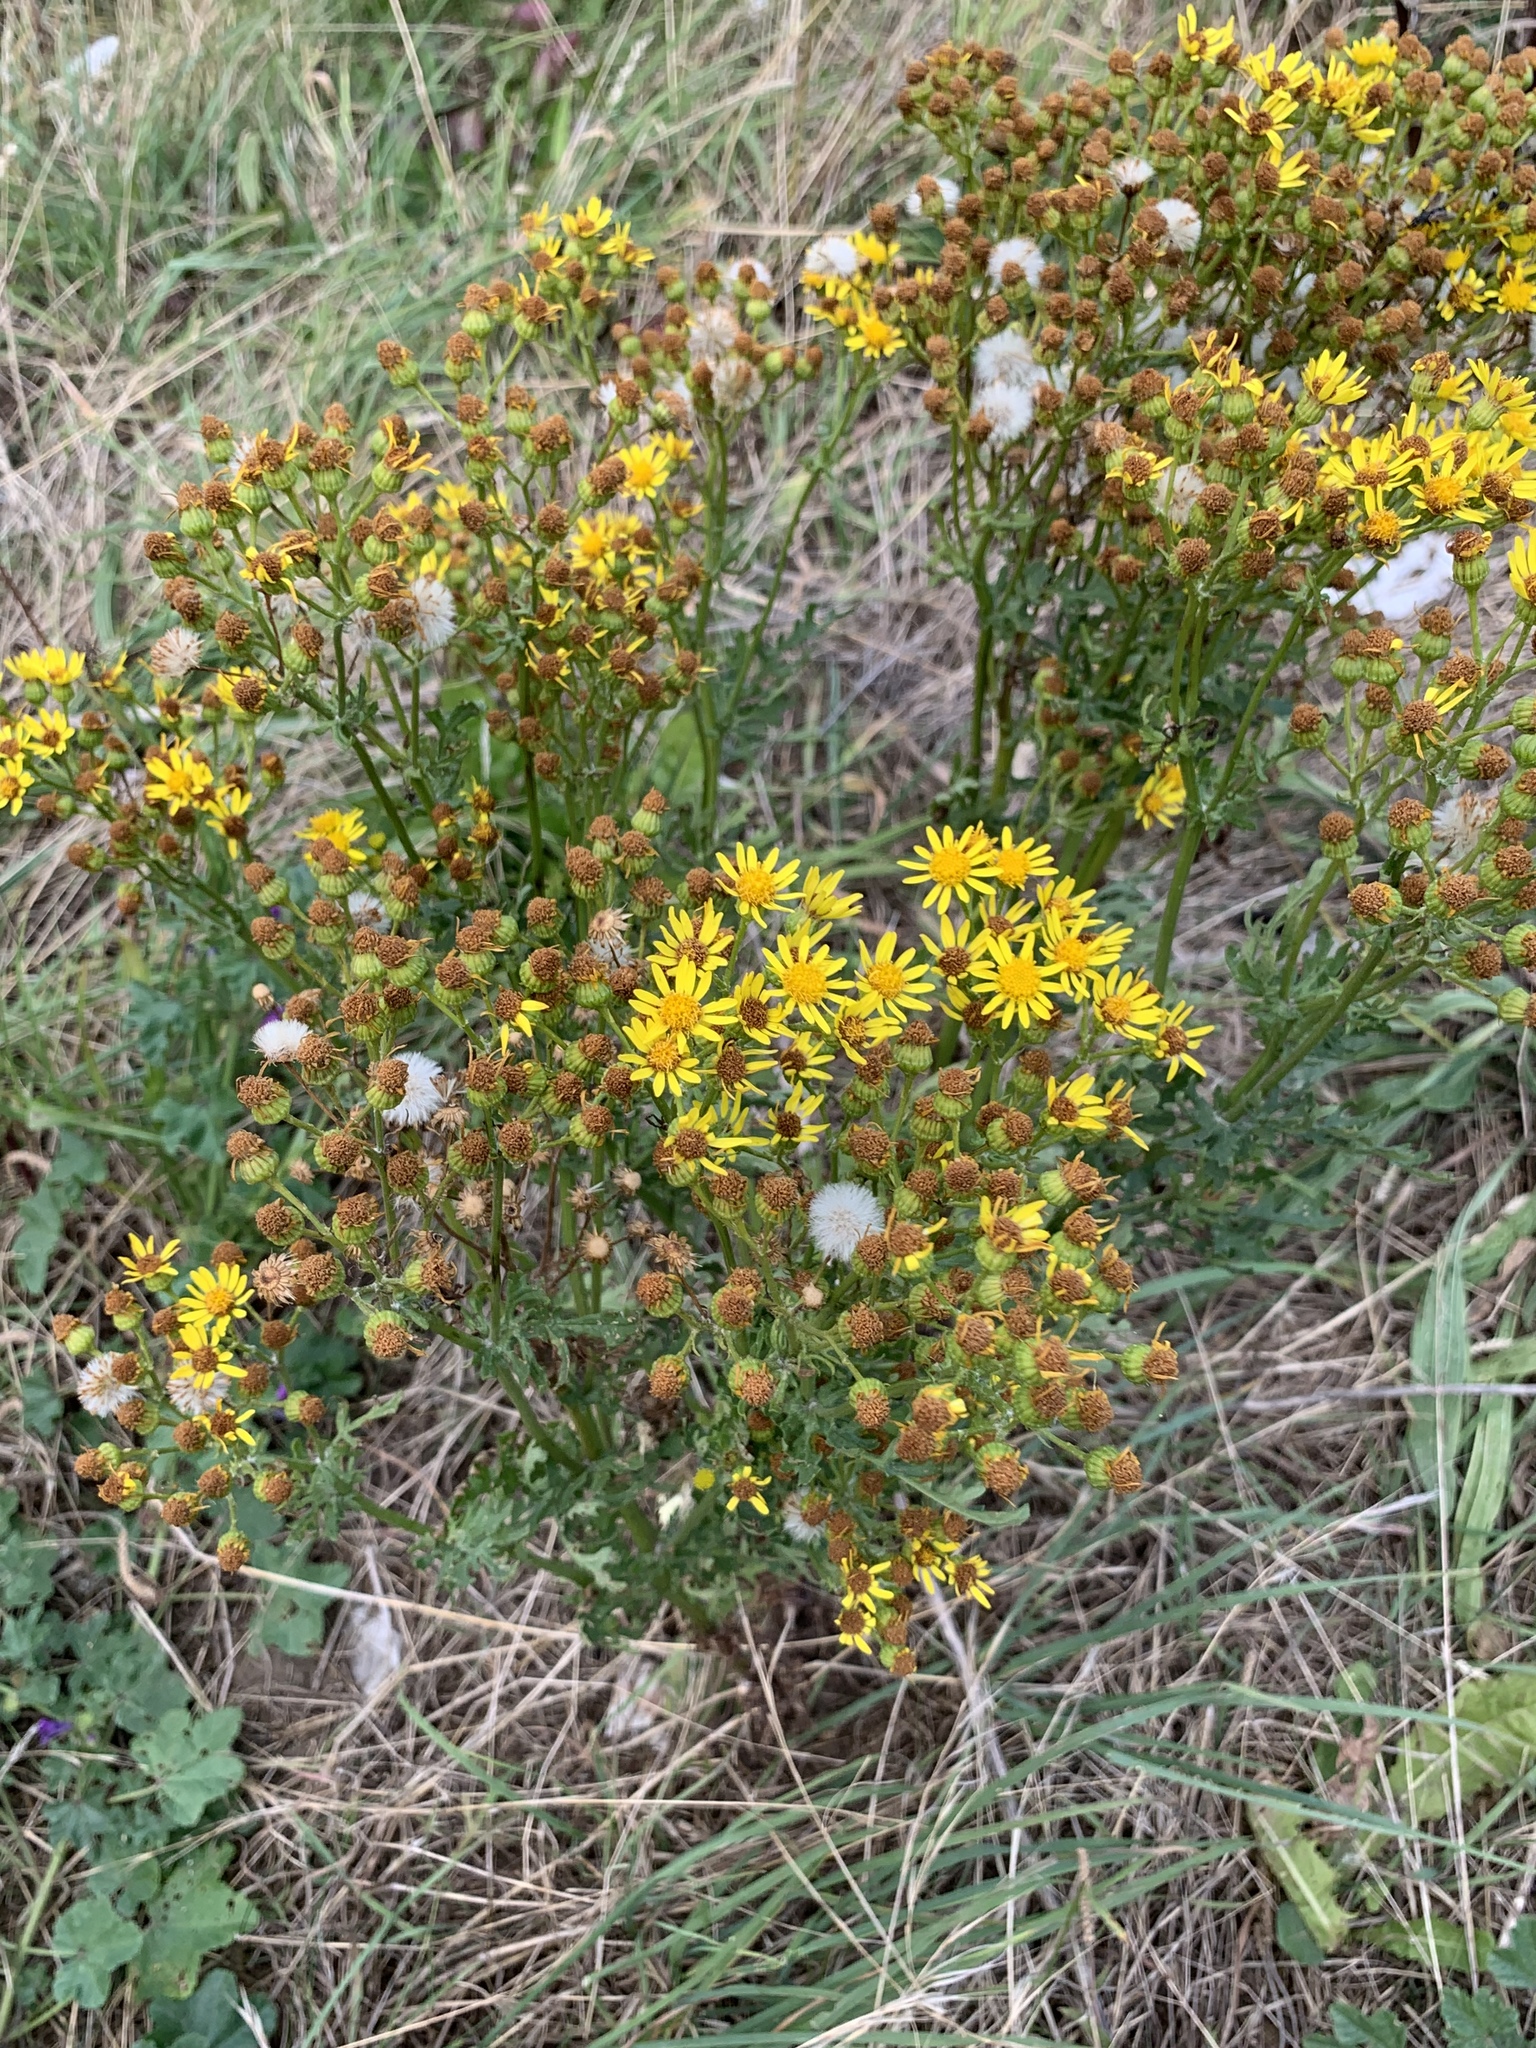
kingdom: Plantae
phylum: Tracheophyta
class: Magnoliopsida
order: Asterales
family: Asteraceae
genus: Jacobaea
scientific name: Jacobaea vulgaris
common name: Stinking willie
